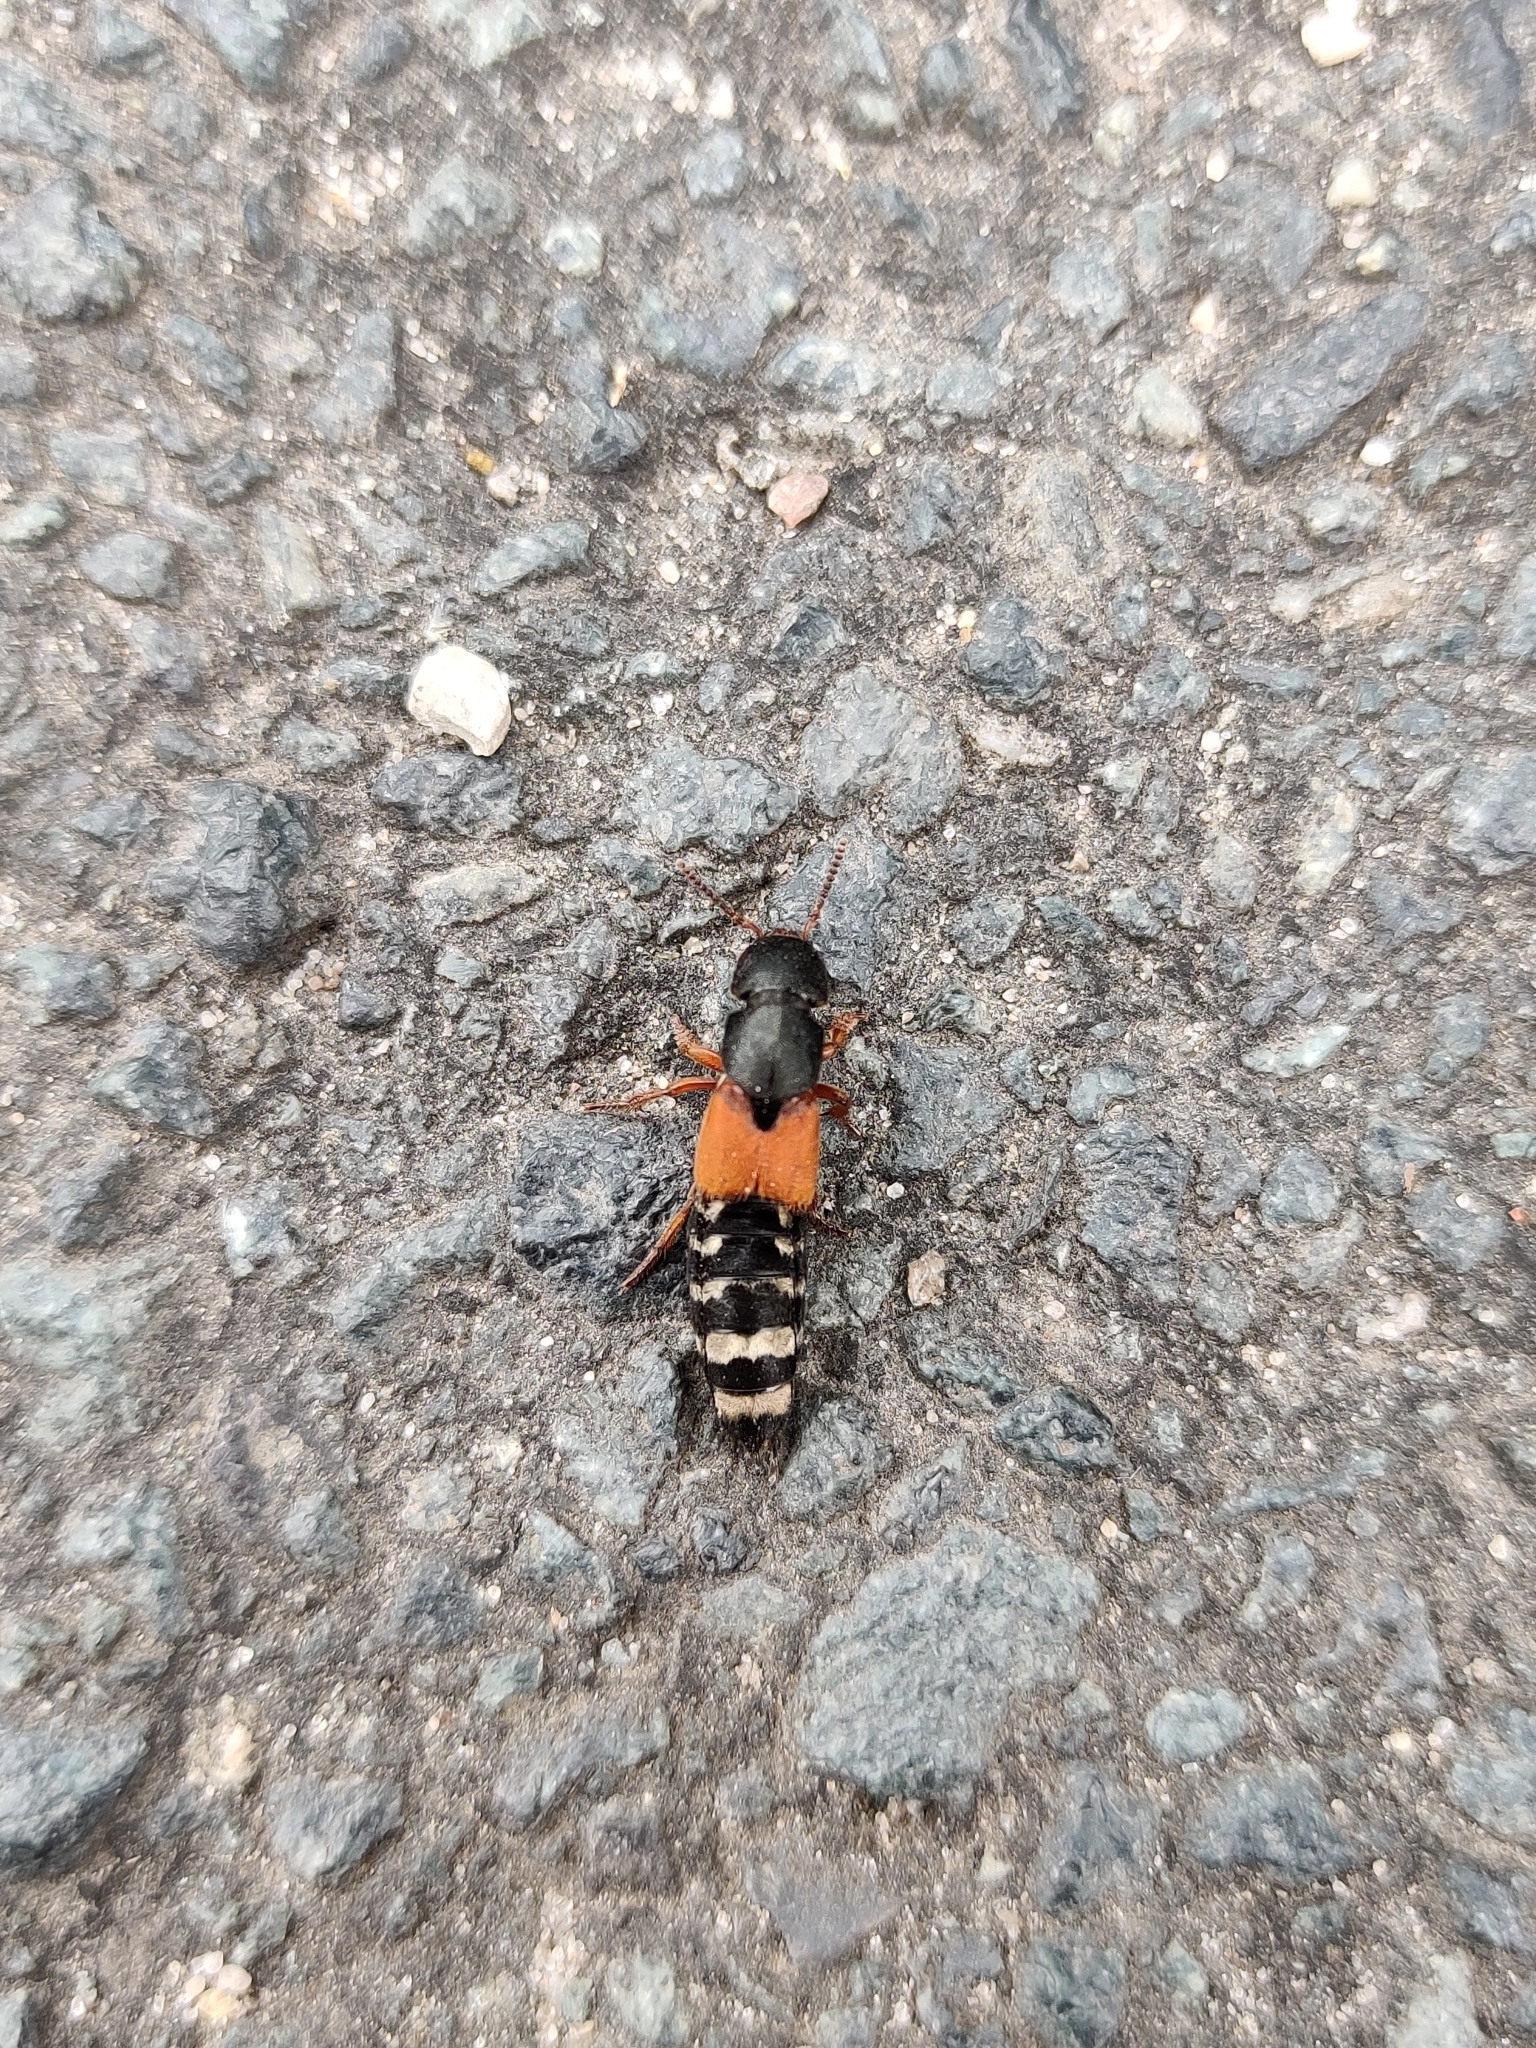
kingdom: Animalia
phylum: Arthropoda
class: Insecta
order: Coleoptera
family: Staphylinidae
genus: Platydracus
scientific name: Platydracus stercorarius
